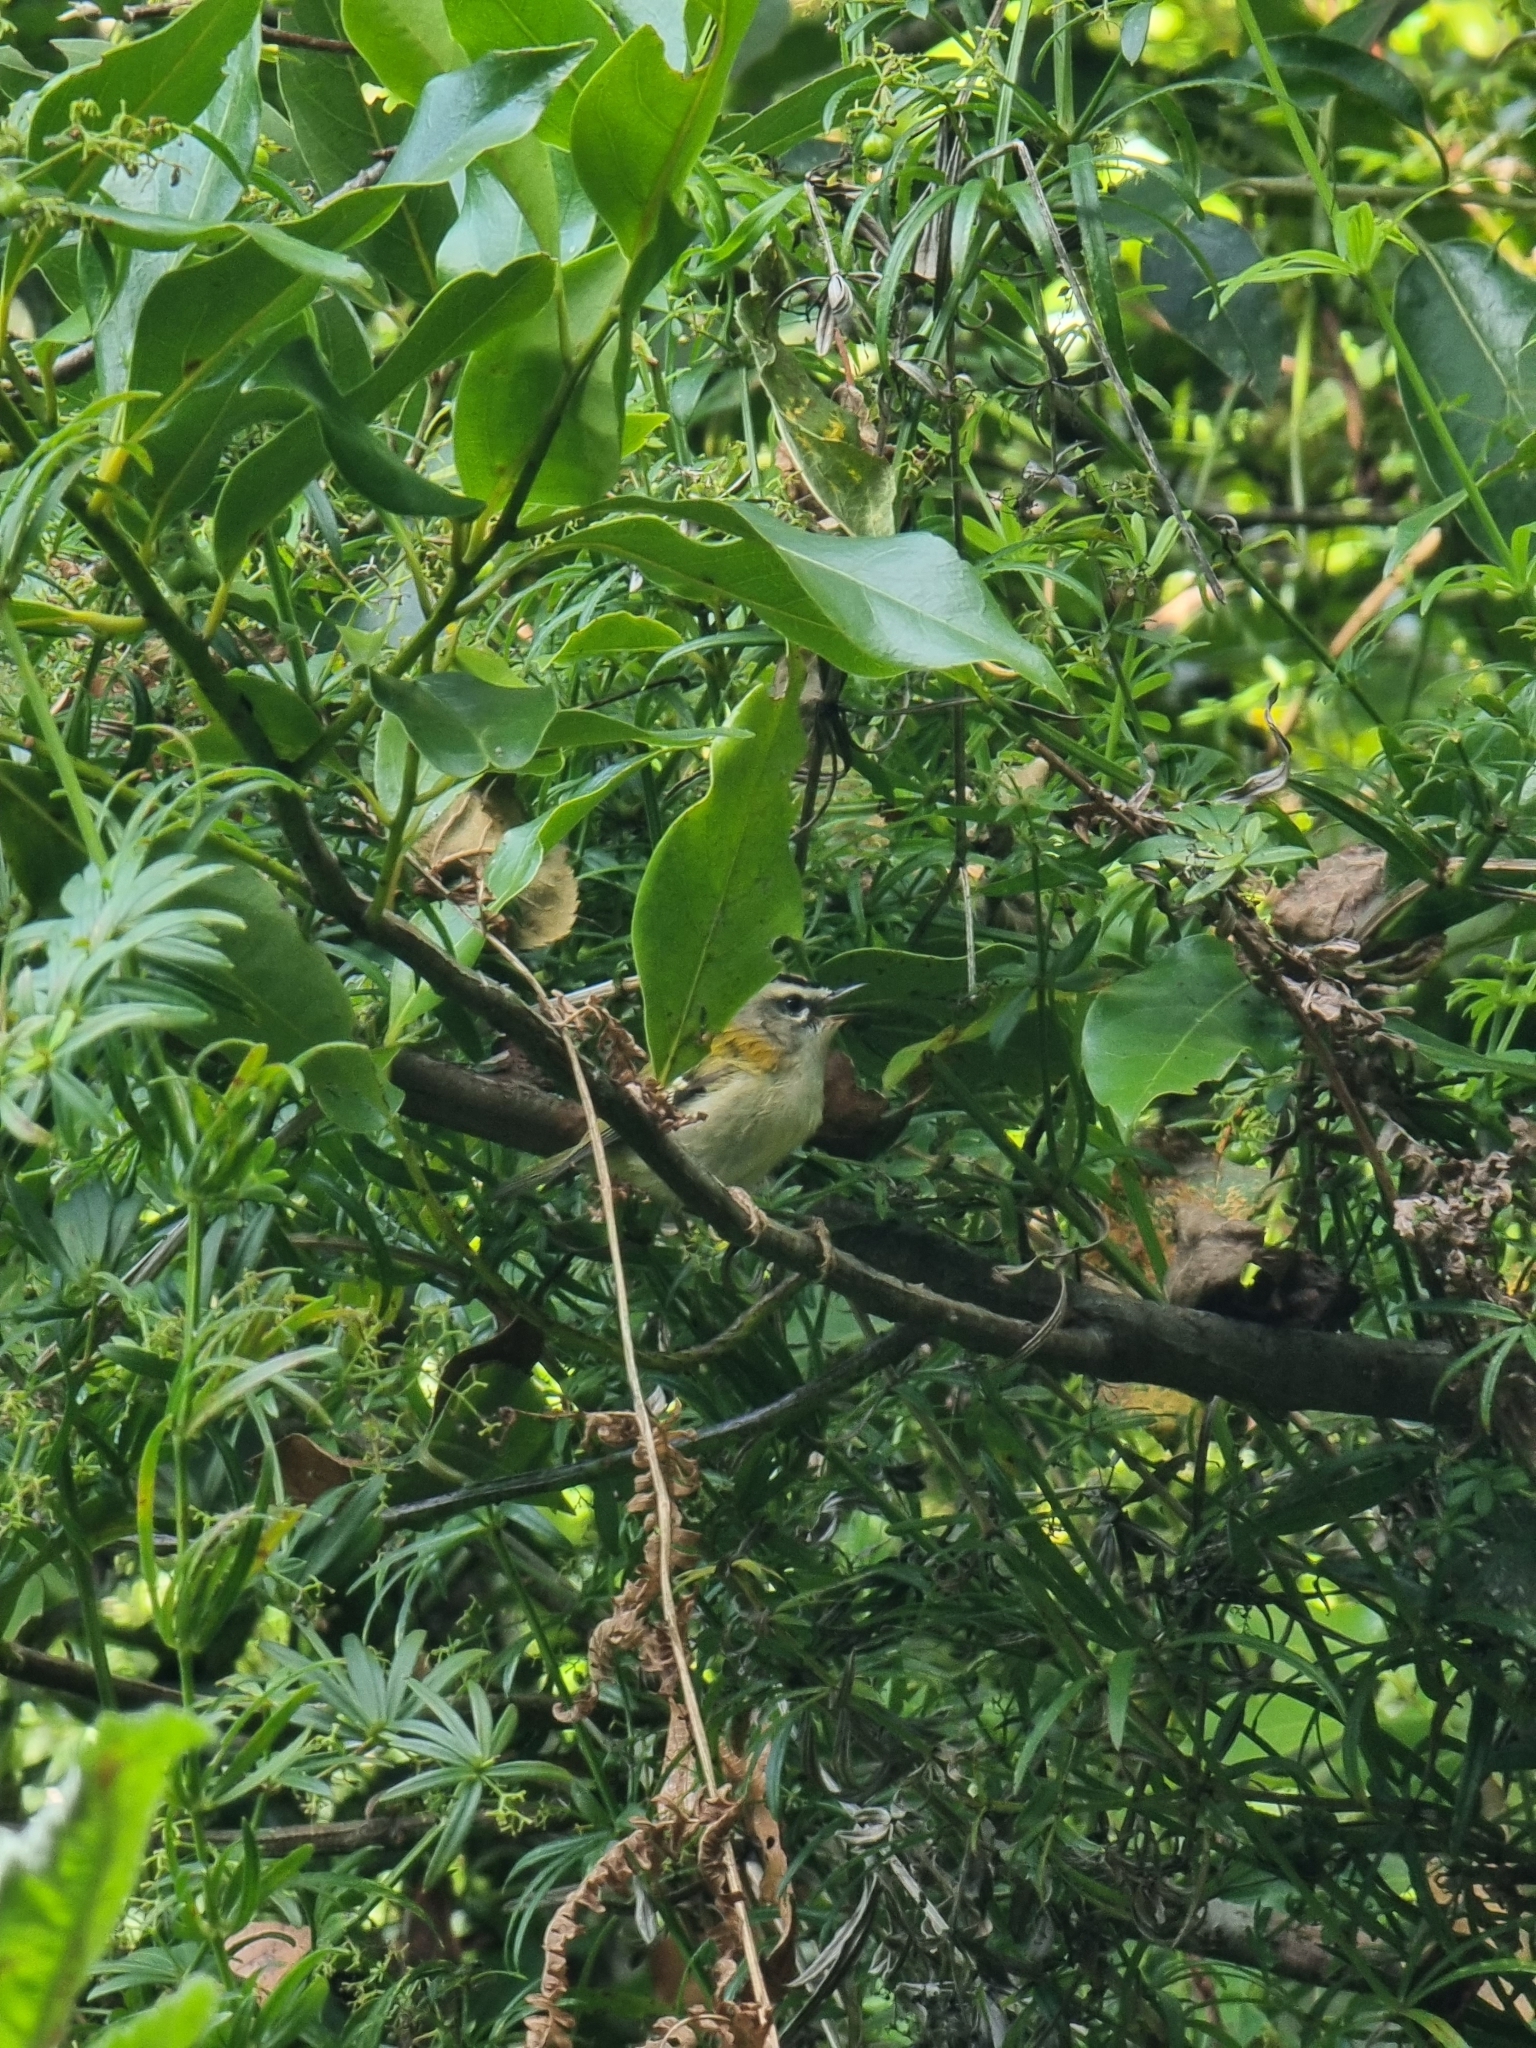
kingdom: Animalia
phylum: Chordata
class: Aves
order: Passeriformes
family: Regulidae
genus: Regulus
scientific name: Regulus madeirensis
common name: Madeira firecrest
